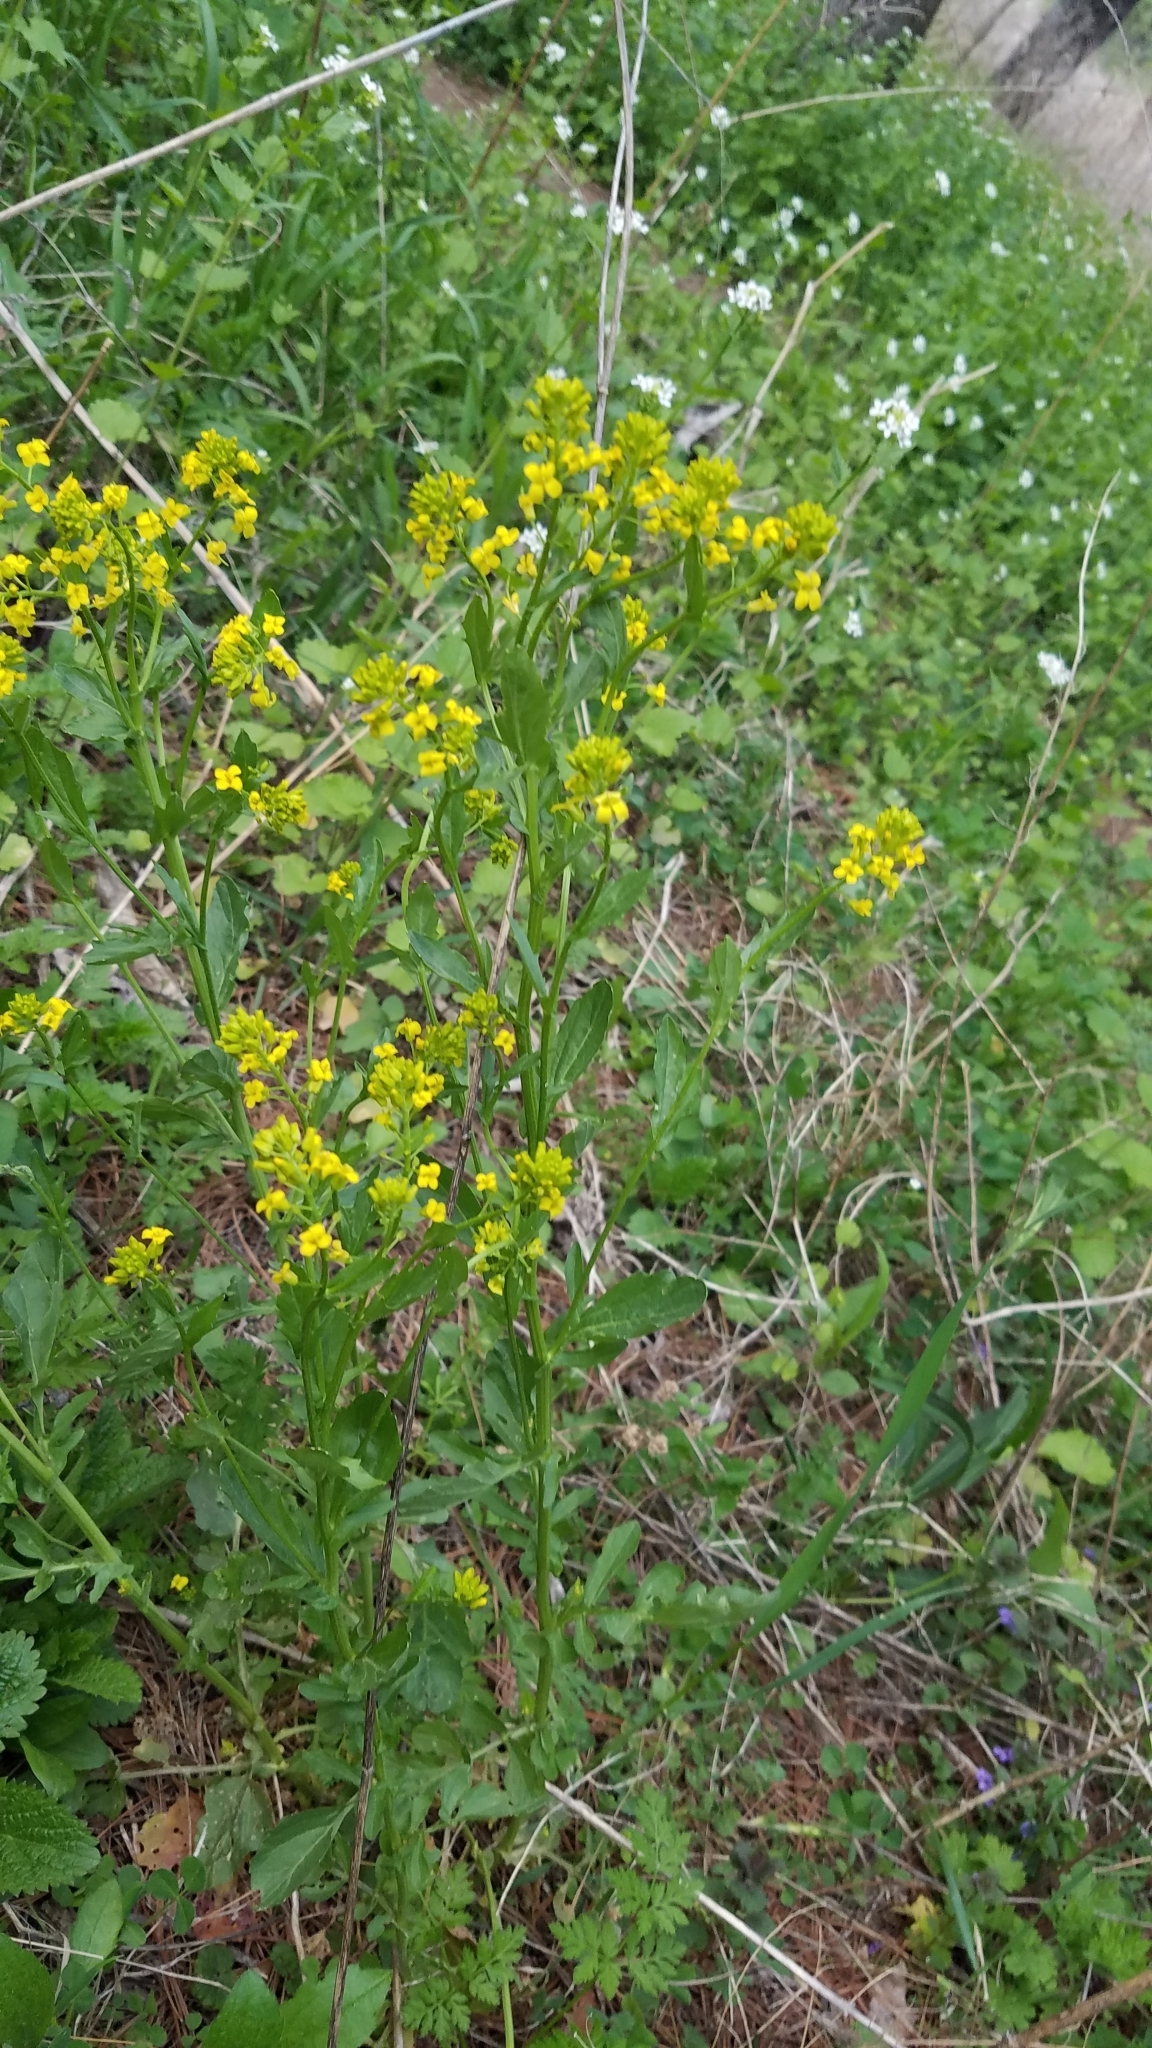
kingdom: Plantae
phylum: Tracheophyta
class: Magnoliopsida
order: Brassicales
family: Brassicaceae
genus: Barbarea
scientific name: Barbarea vulgaris
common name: Cressy-greens
